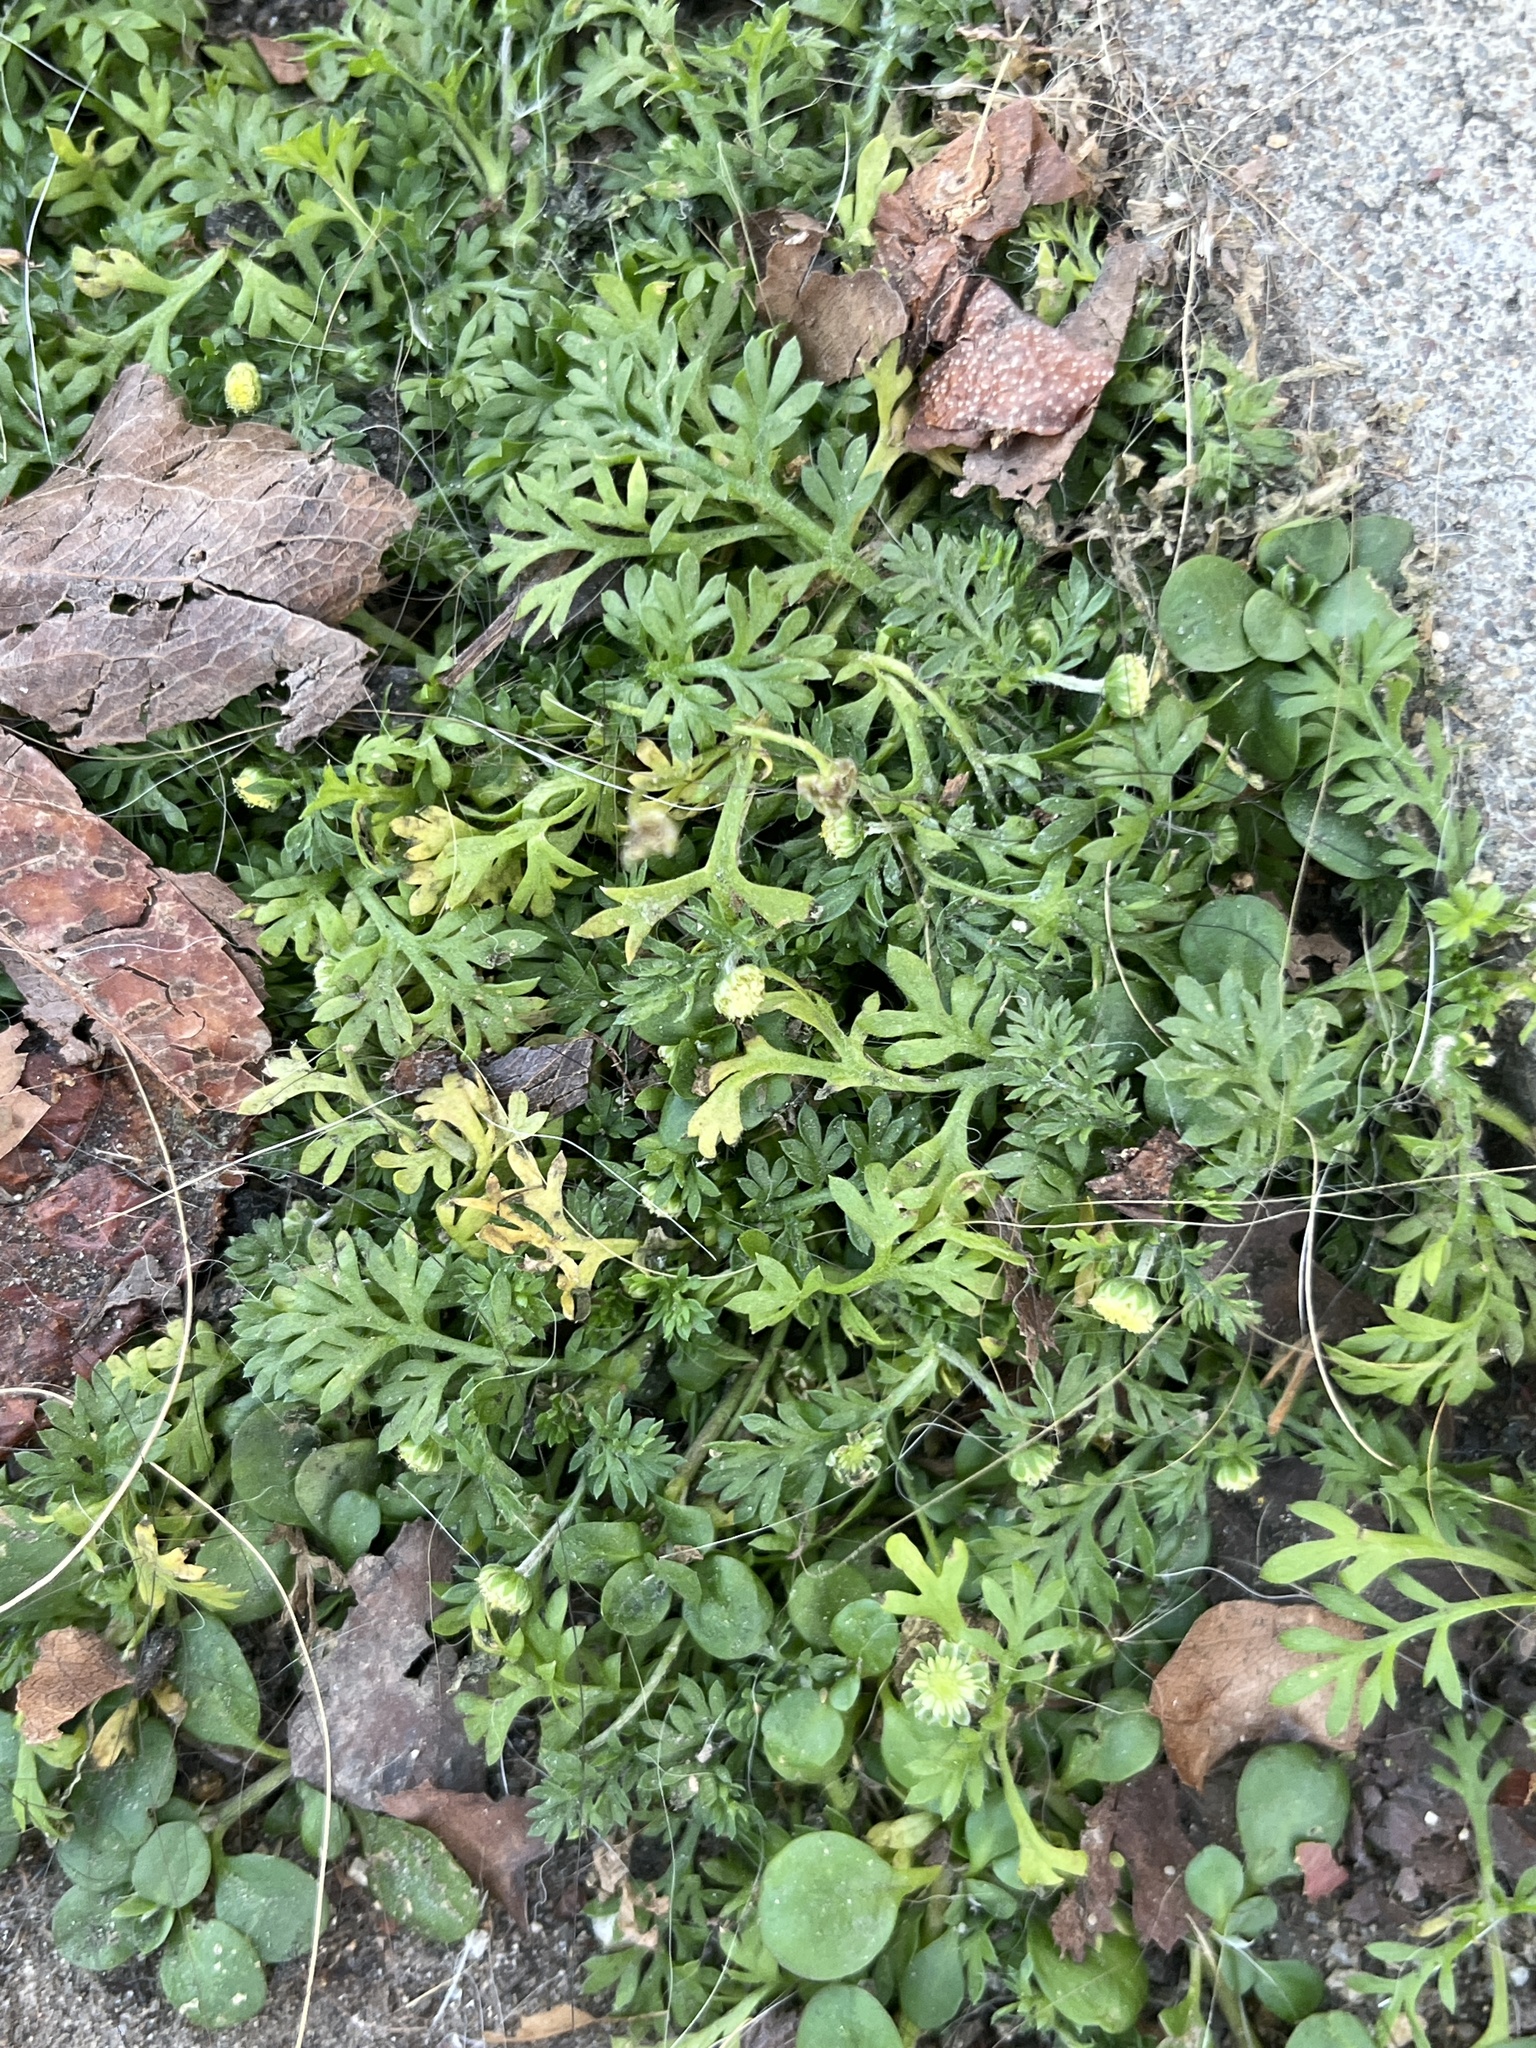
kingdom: Plantae
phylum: Tracheophyta
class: Magnoliopsida
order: Asterales
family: Asteraceae
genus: Cotula
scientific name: Cotula australis
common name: Australian waterbuttons
